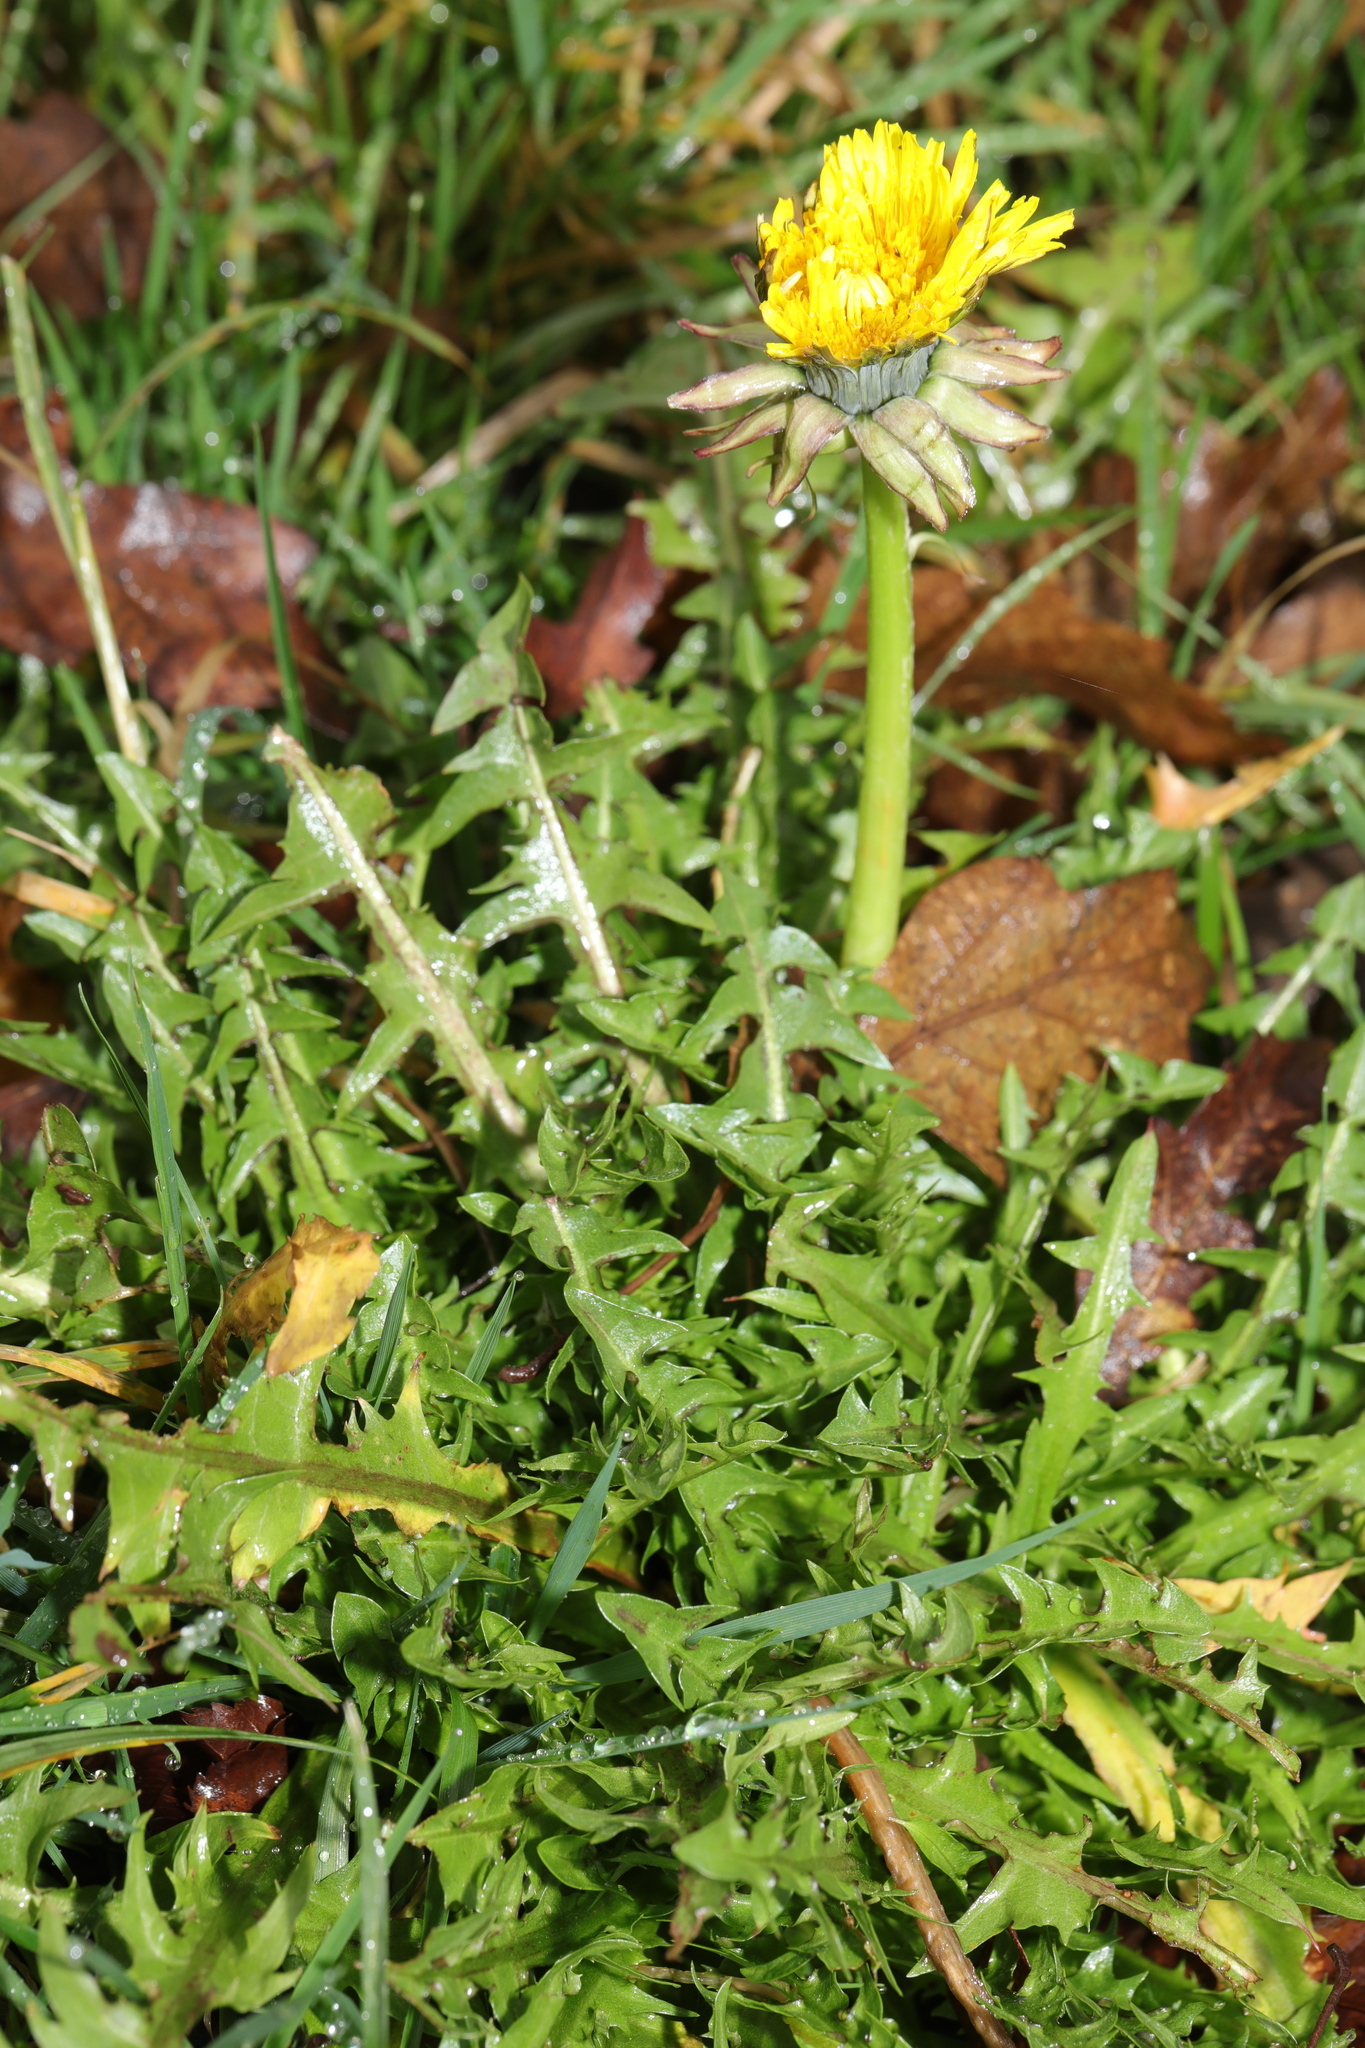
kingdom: Plantae
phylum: Tracheophyta
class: Magnoliopsida
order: Asterales
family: Asteraceae
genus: Taraxacum
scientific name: Taraxacum officinale
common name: Common dandelion
